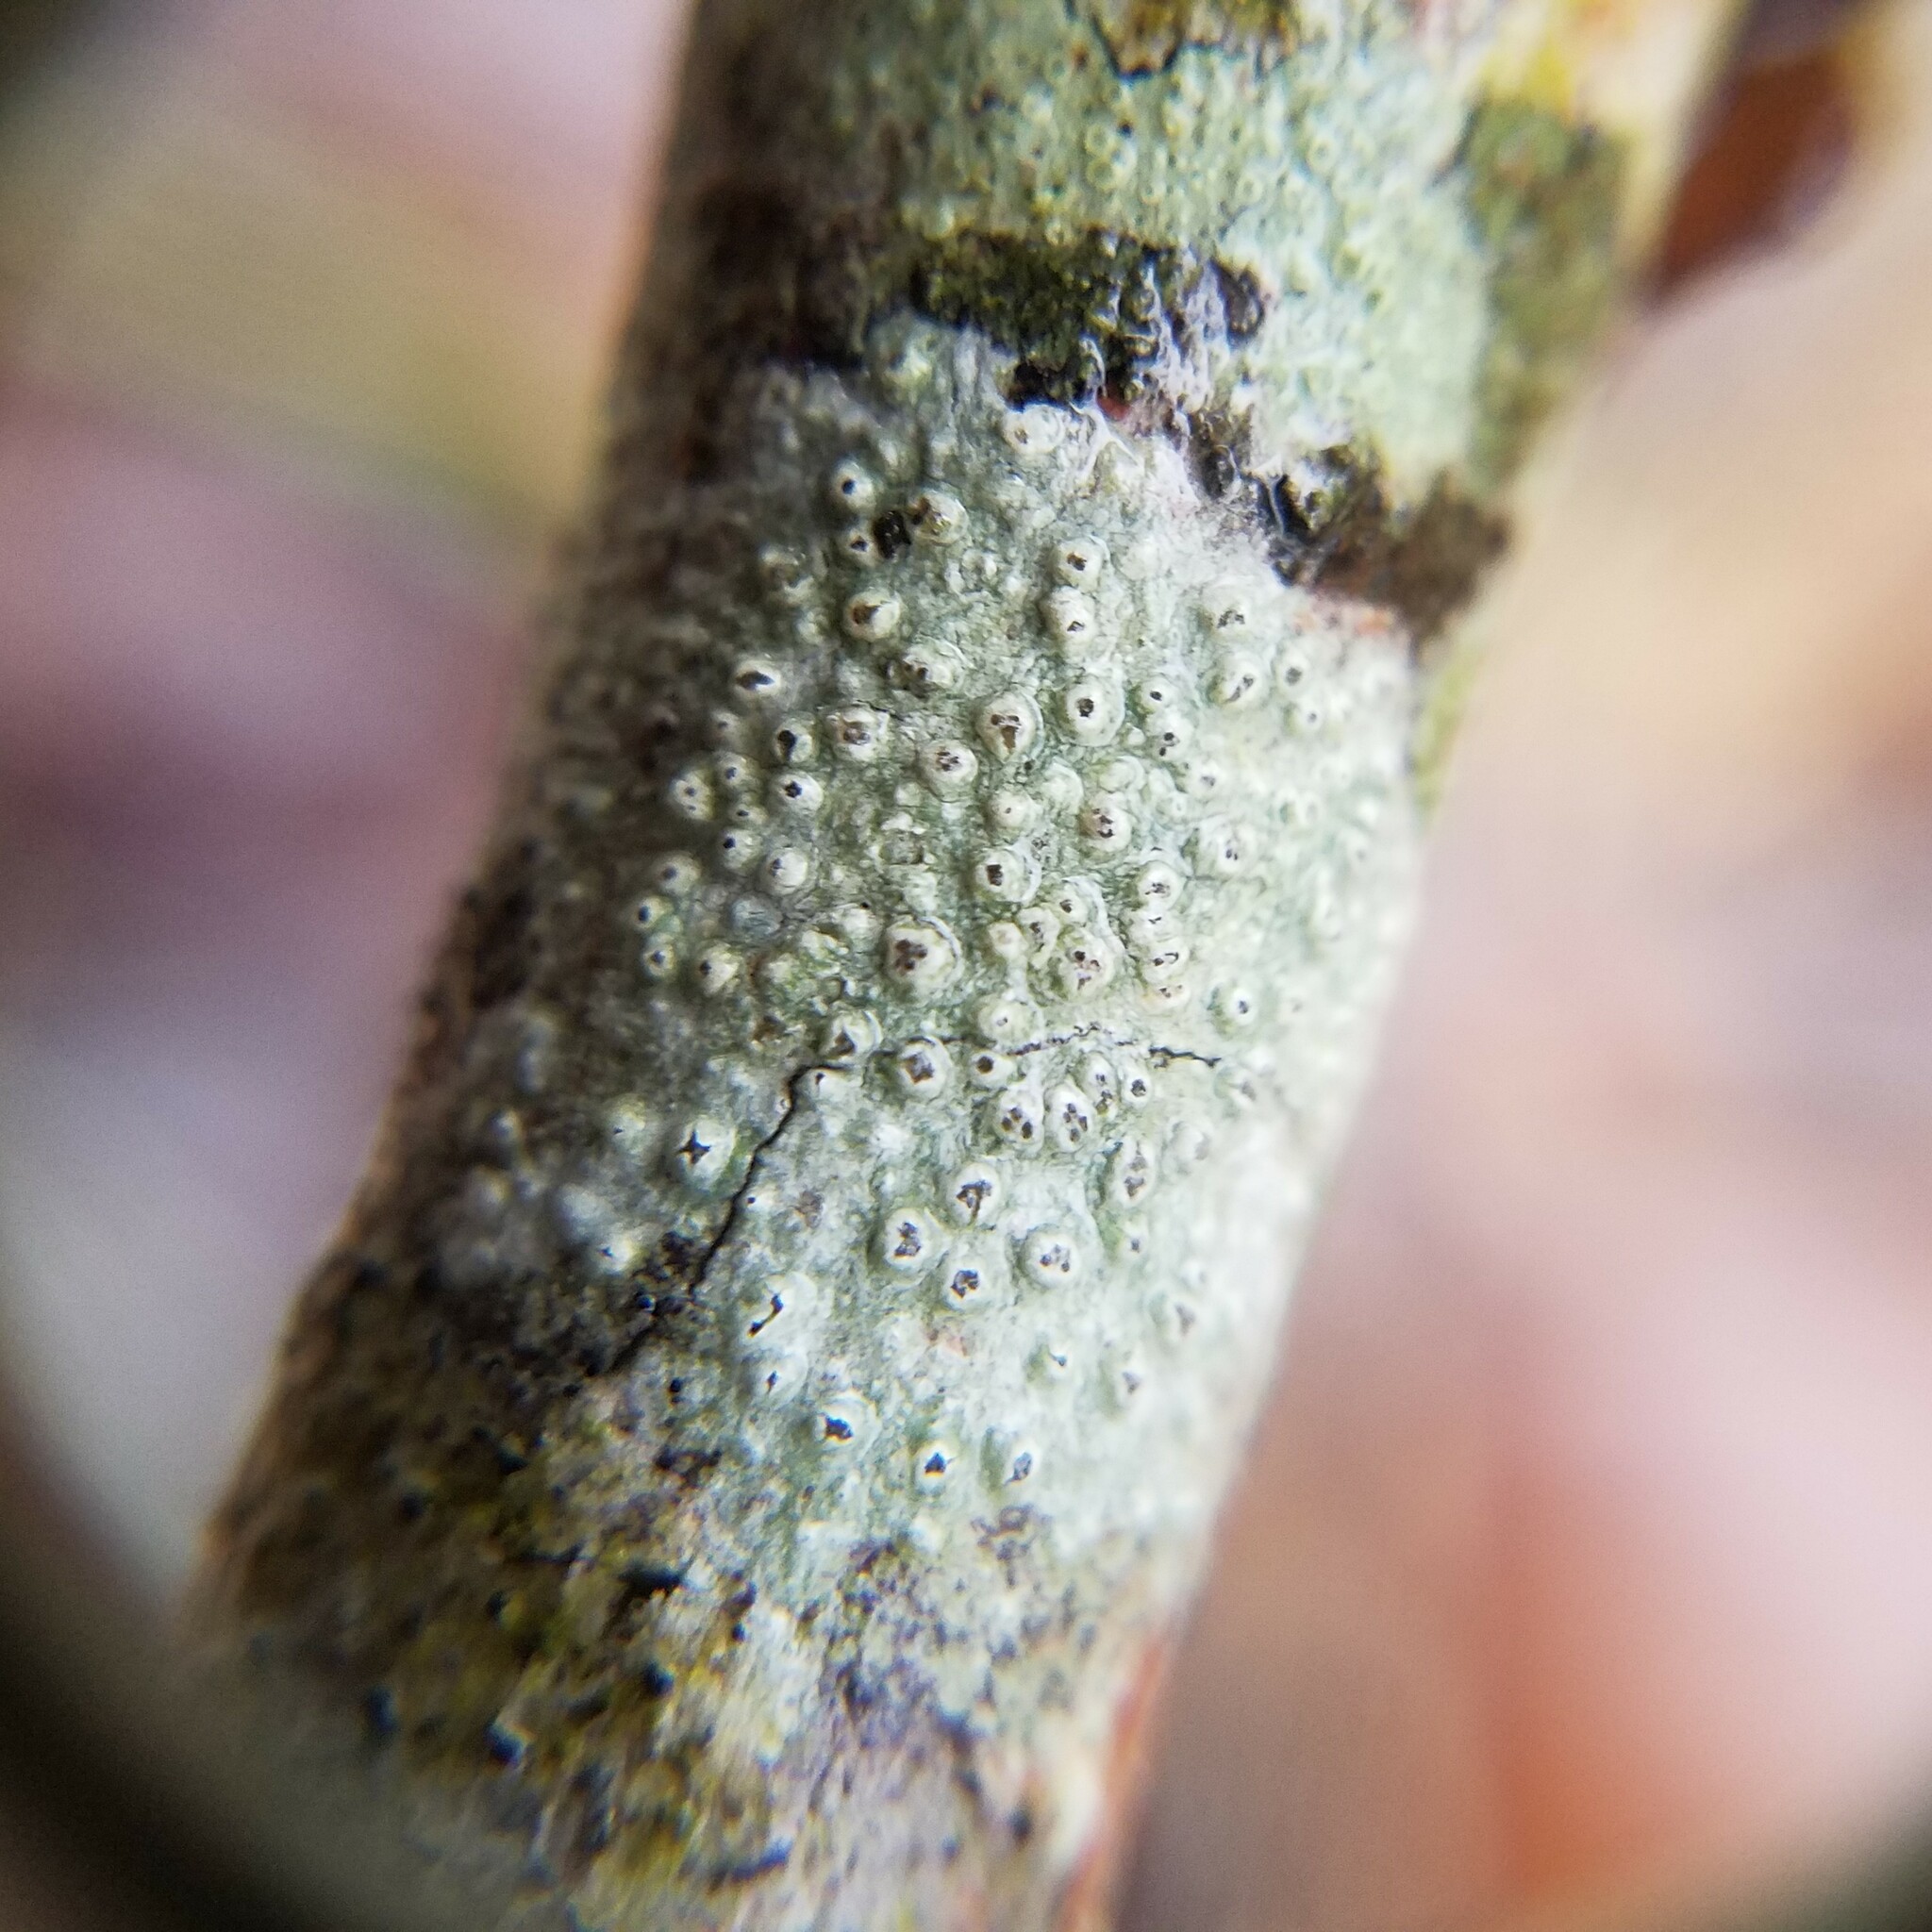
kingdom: Fungi
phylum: Ascomycota
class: Lecanoromycetes
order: Pertusariales
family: Pertusariaceae
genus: Pertusaria
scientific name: Pertusaria
